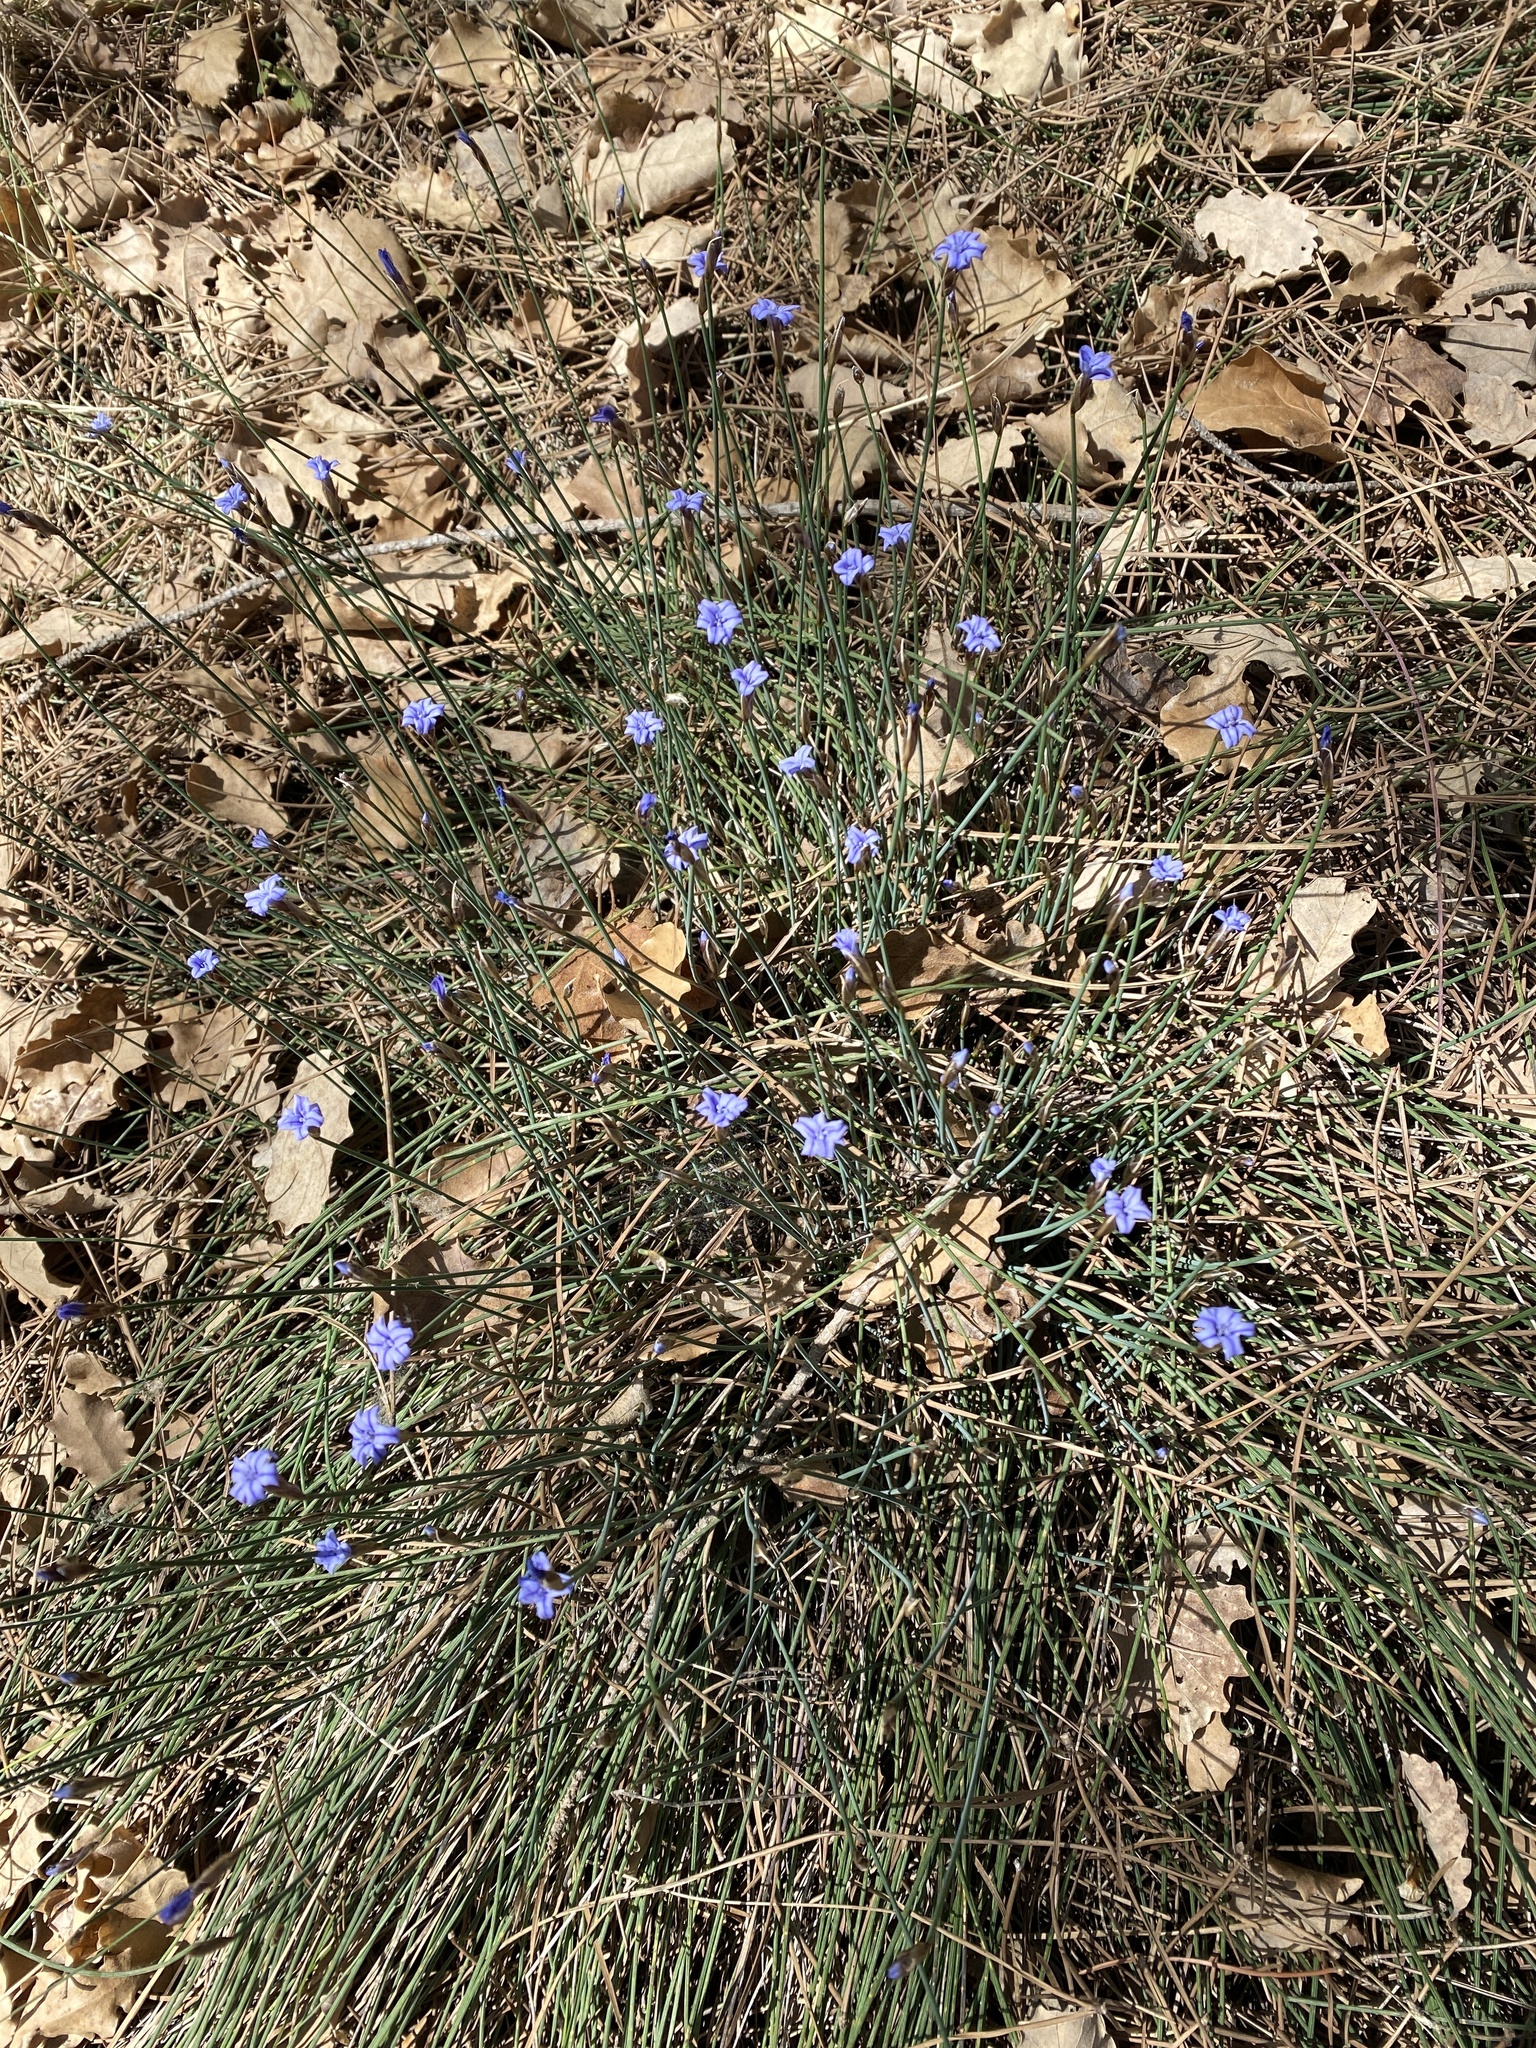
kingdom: Plantae
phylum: Tracheophyta
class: Liliopsida
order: Asparagales
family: Asparagaceae
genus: Aphyllanthes
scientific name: Aphyllanthes monspeliensis
